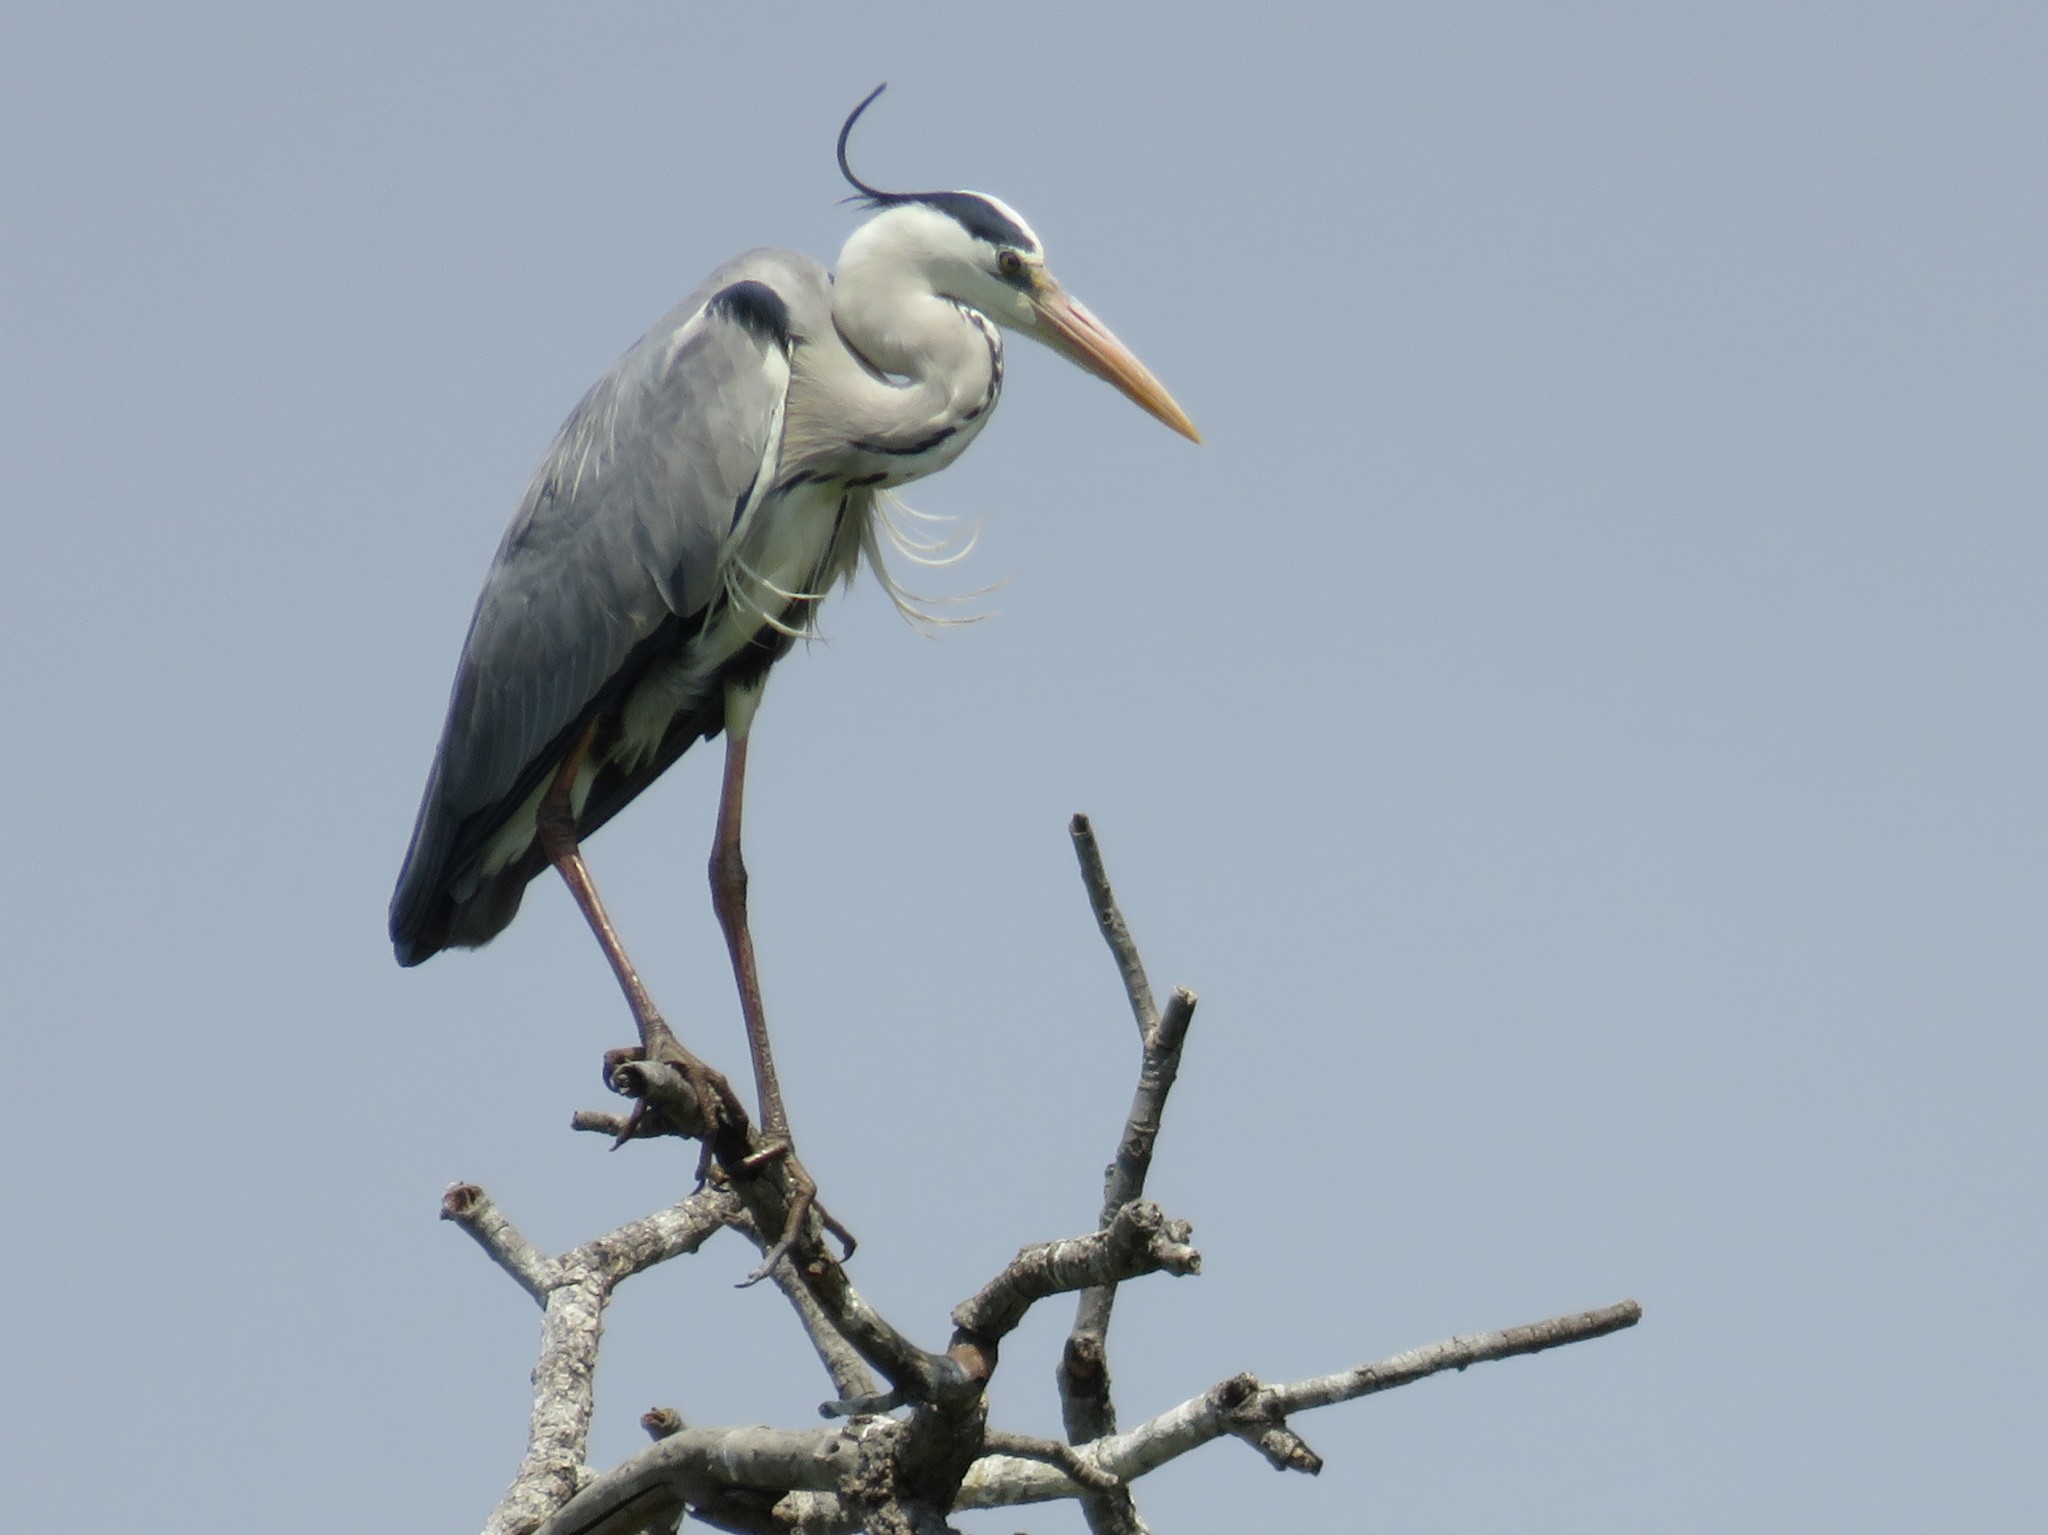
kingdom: Animalia
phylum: Chordata
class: Aves
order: Pelecaniformes
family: Ardeidae
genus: Ardea
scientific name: Ardea cinerea
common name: Grey heron
